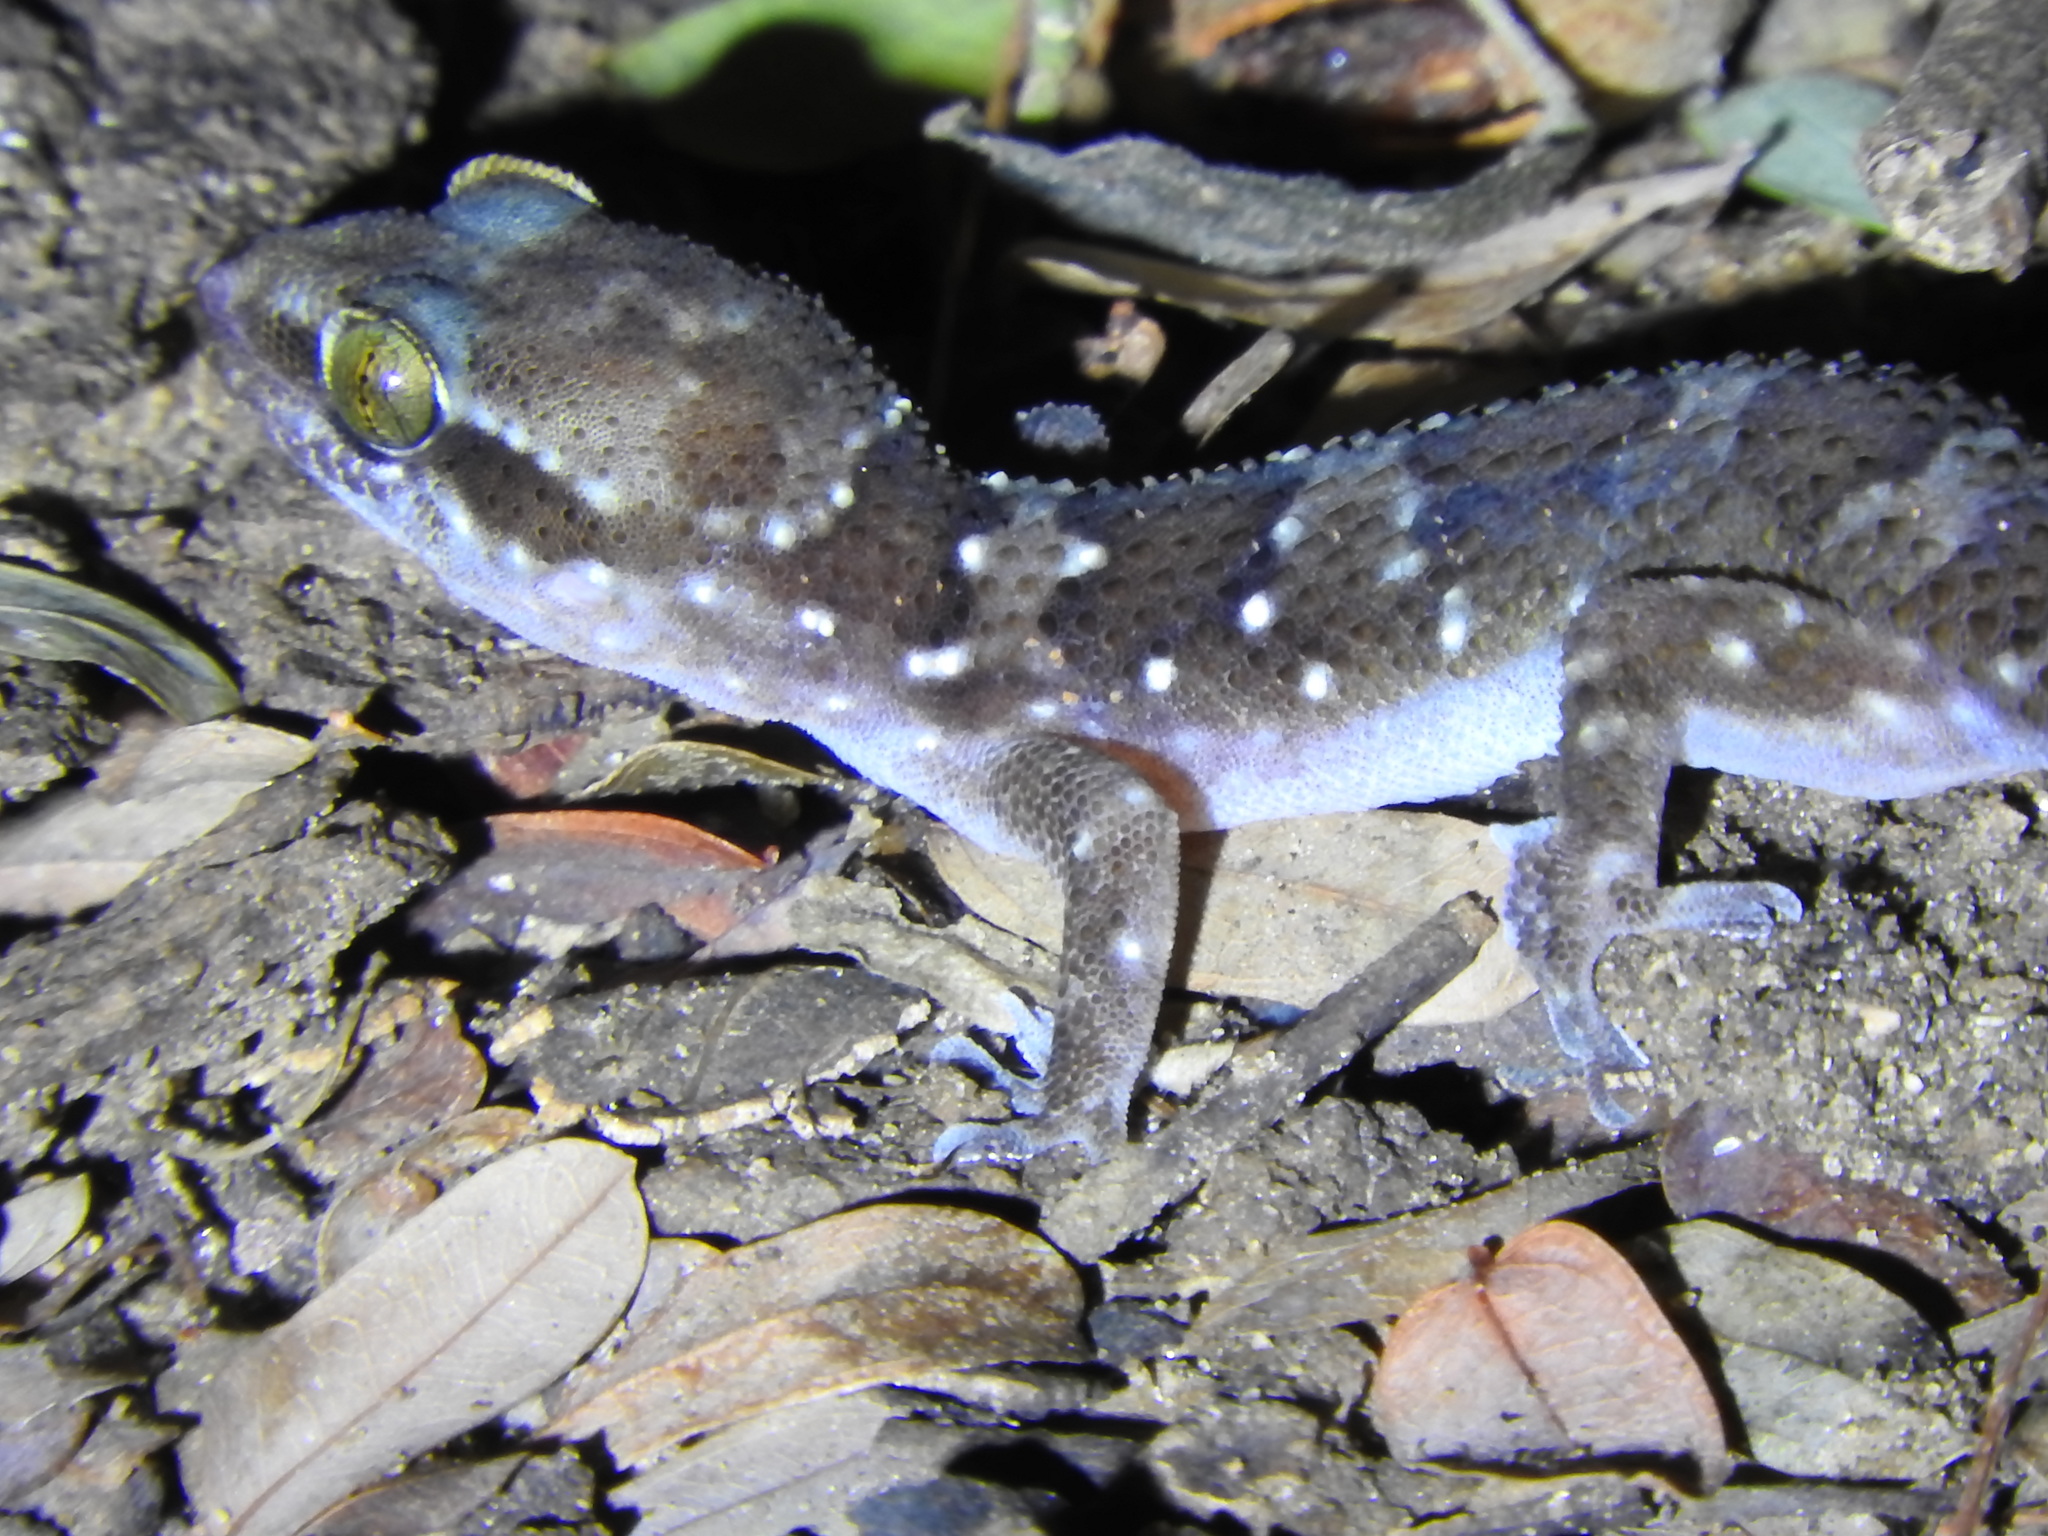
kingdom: Animalia
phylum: Chordata
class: Squamata
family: Gekkonidae
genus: Hemidactylus
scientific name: Hemidactylus triedrus
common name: Blotched house gecko
